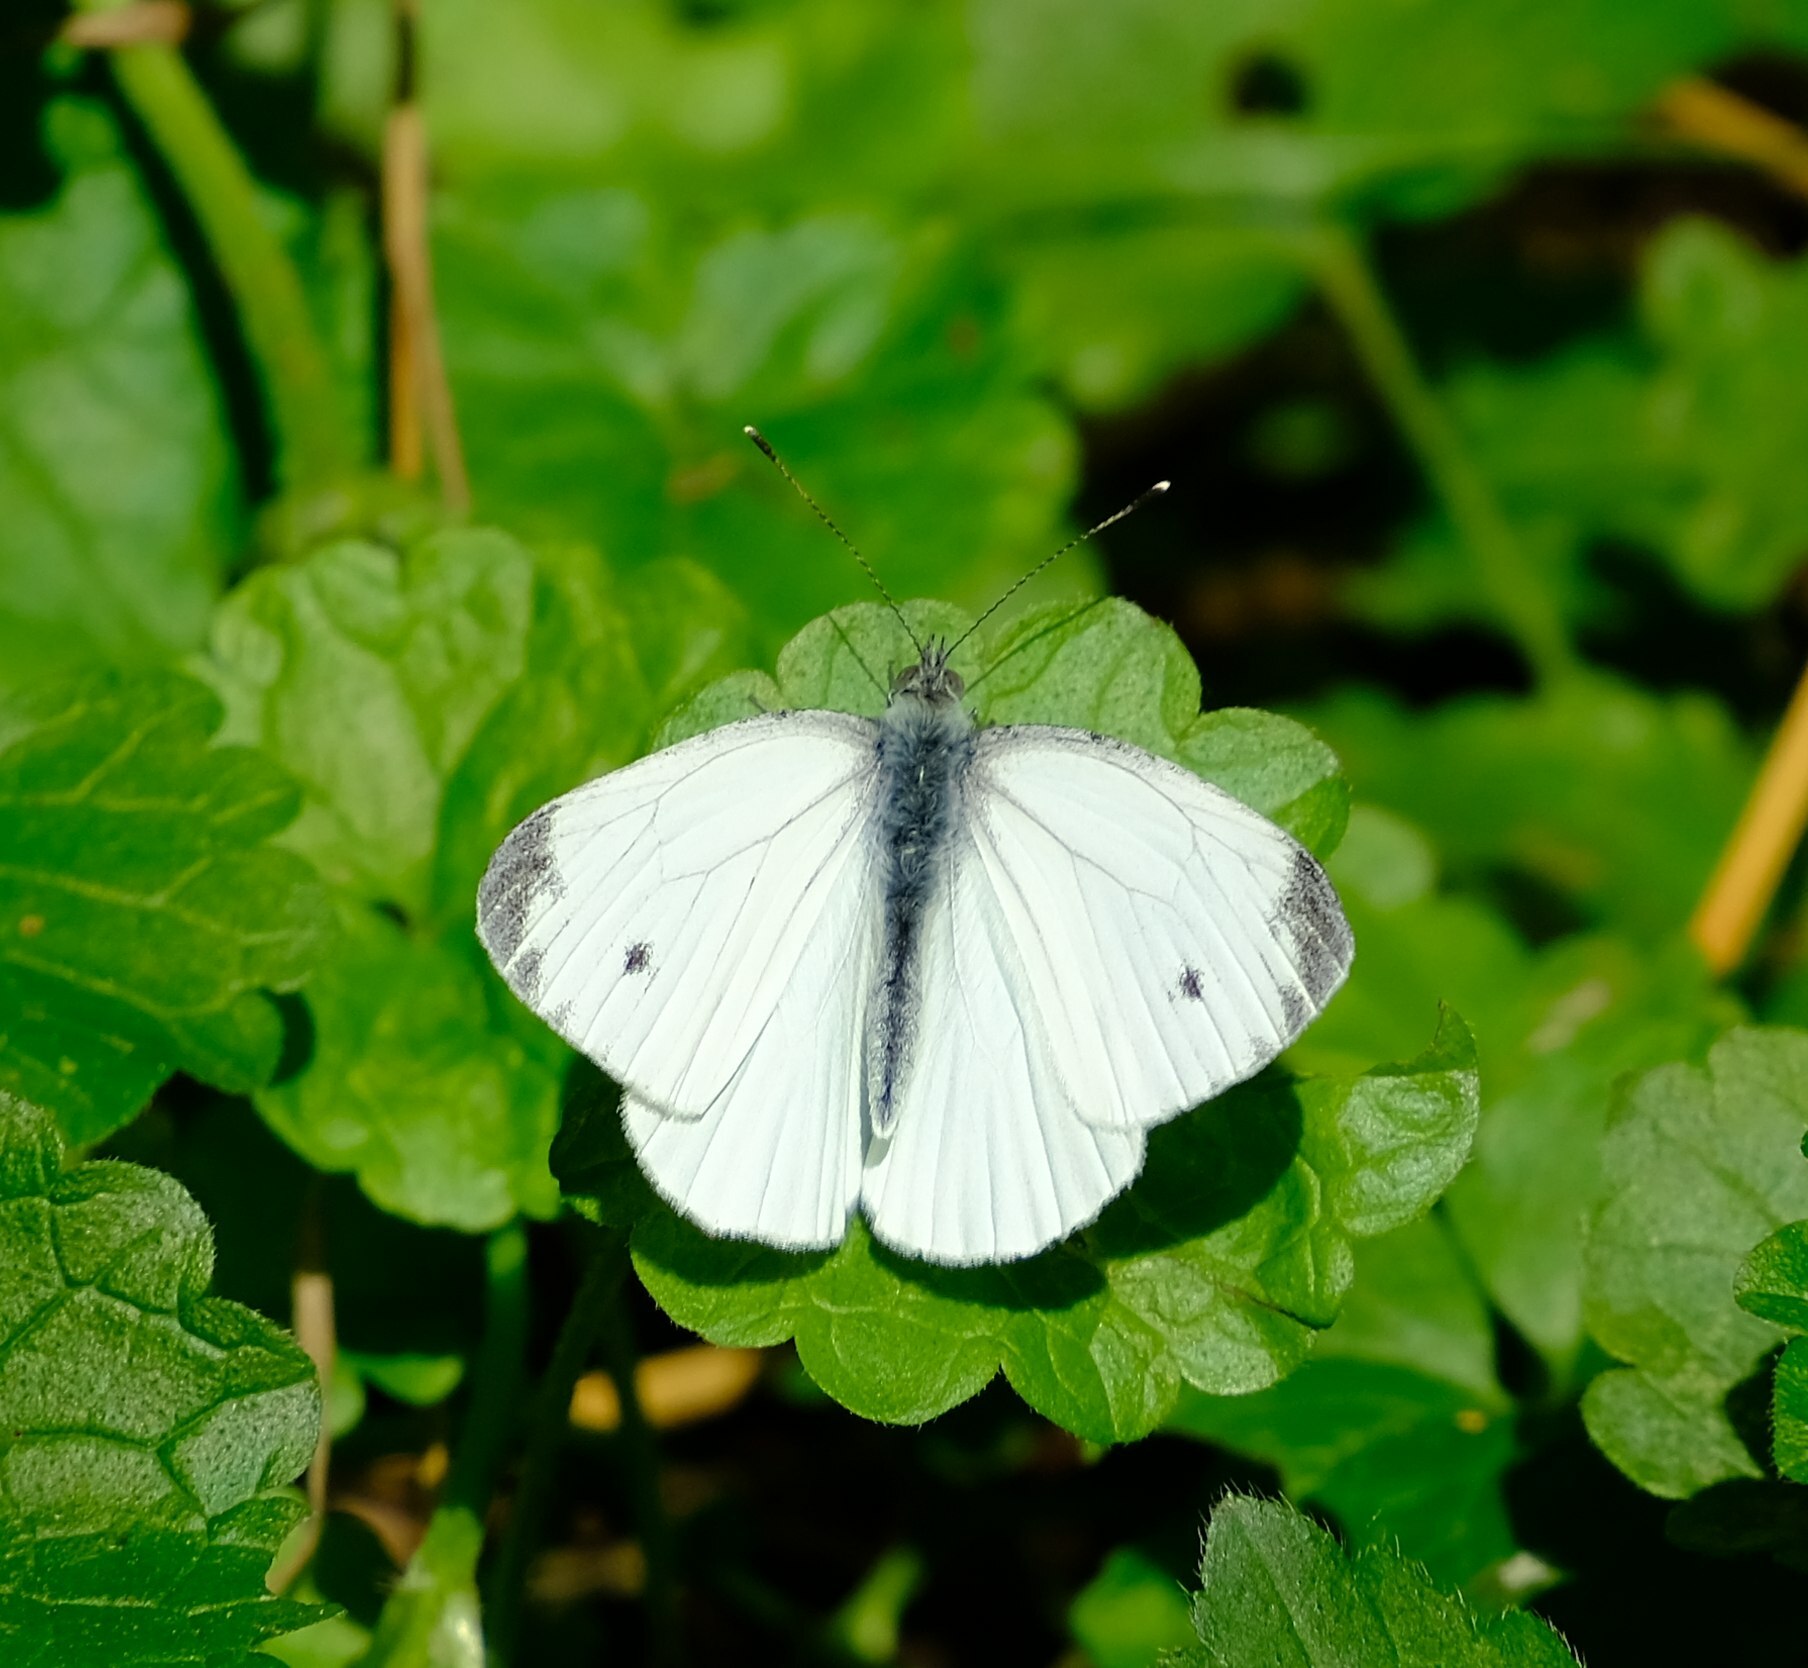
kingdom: Animalia
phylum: Arthropoda
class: Insecta
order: Lepidoptera
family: Pieridae
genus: Pieris
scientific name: Pieris napi
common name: Green-veined white
